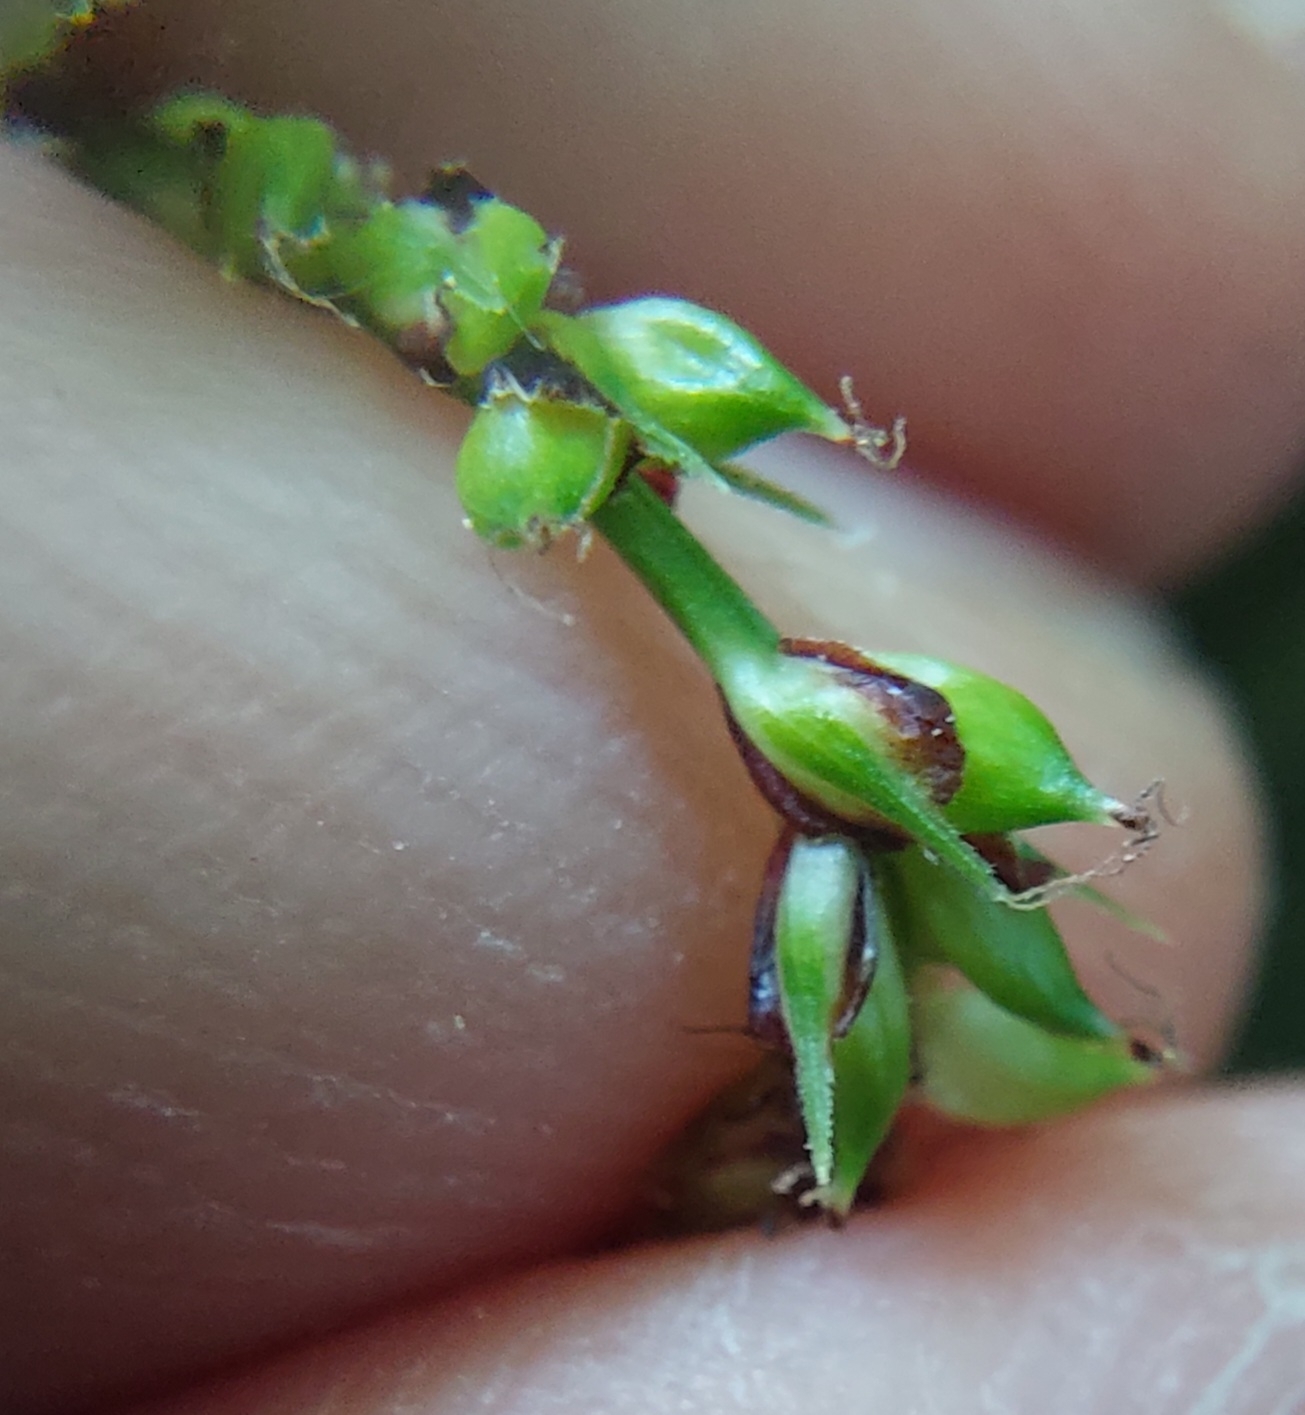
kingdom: Plantae
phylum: Tracheophyta
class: Liliopsida
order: Poales
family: Cyperaceae
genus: Carex
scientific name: Carex pendula
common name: Pendulous sedge
